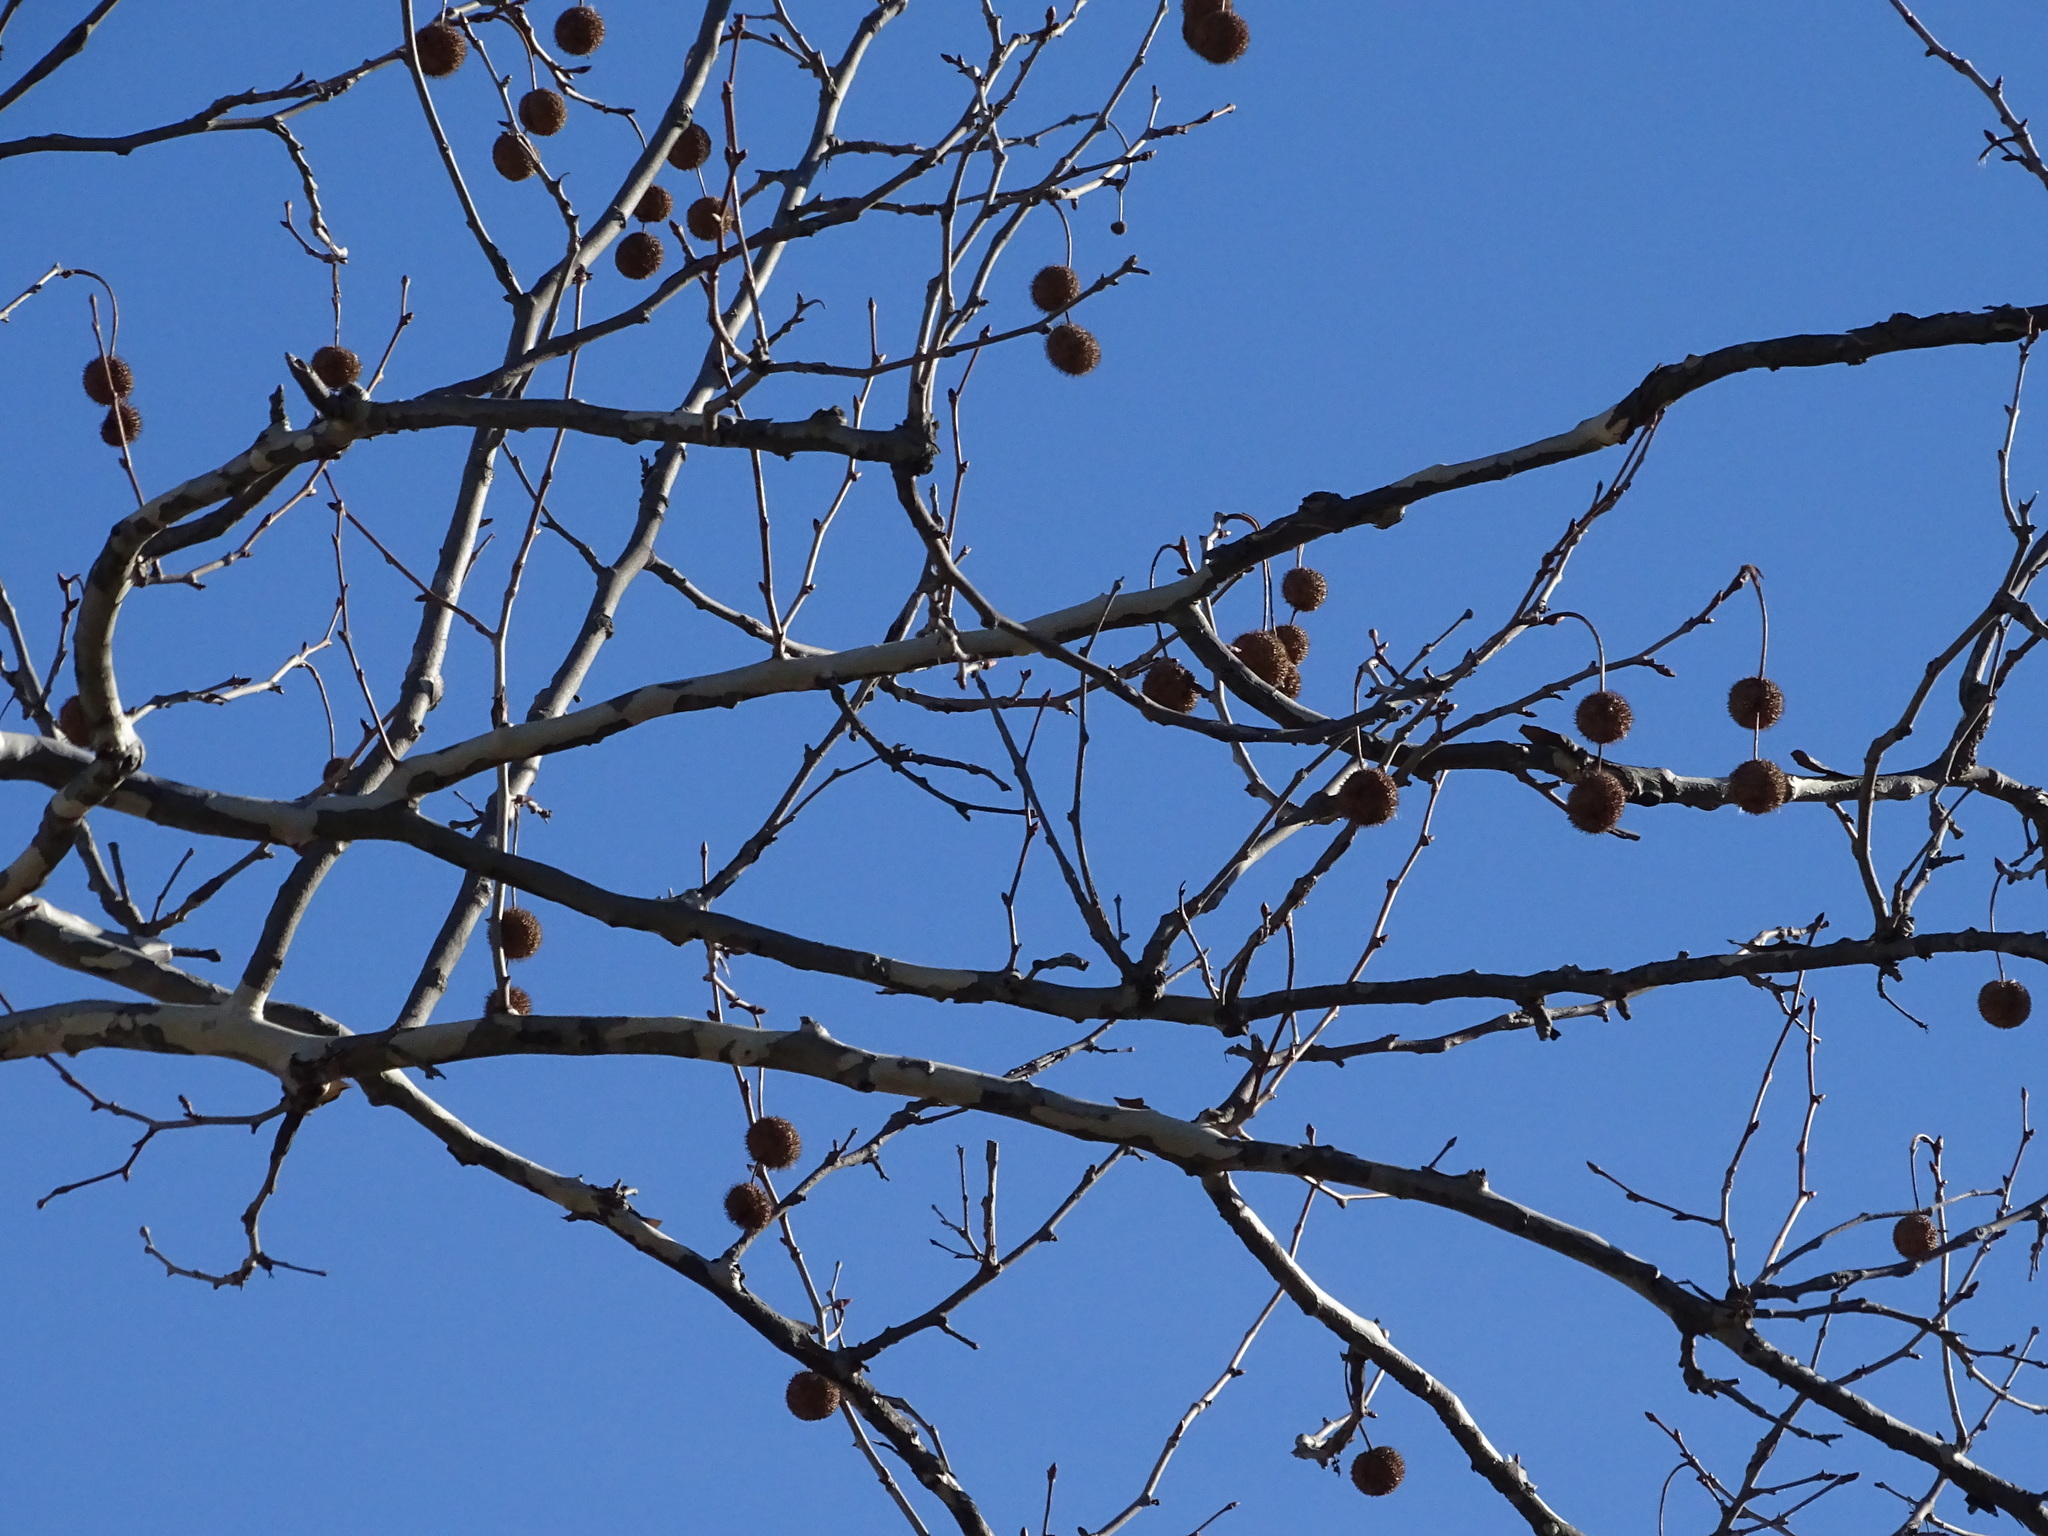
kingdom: Plantae
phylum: Tracheophyta
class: Magnoliopsida
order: Proteales
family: Platanaceae
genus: Platanus
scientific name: Platanus hispanica
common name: London plane
